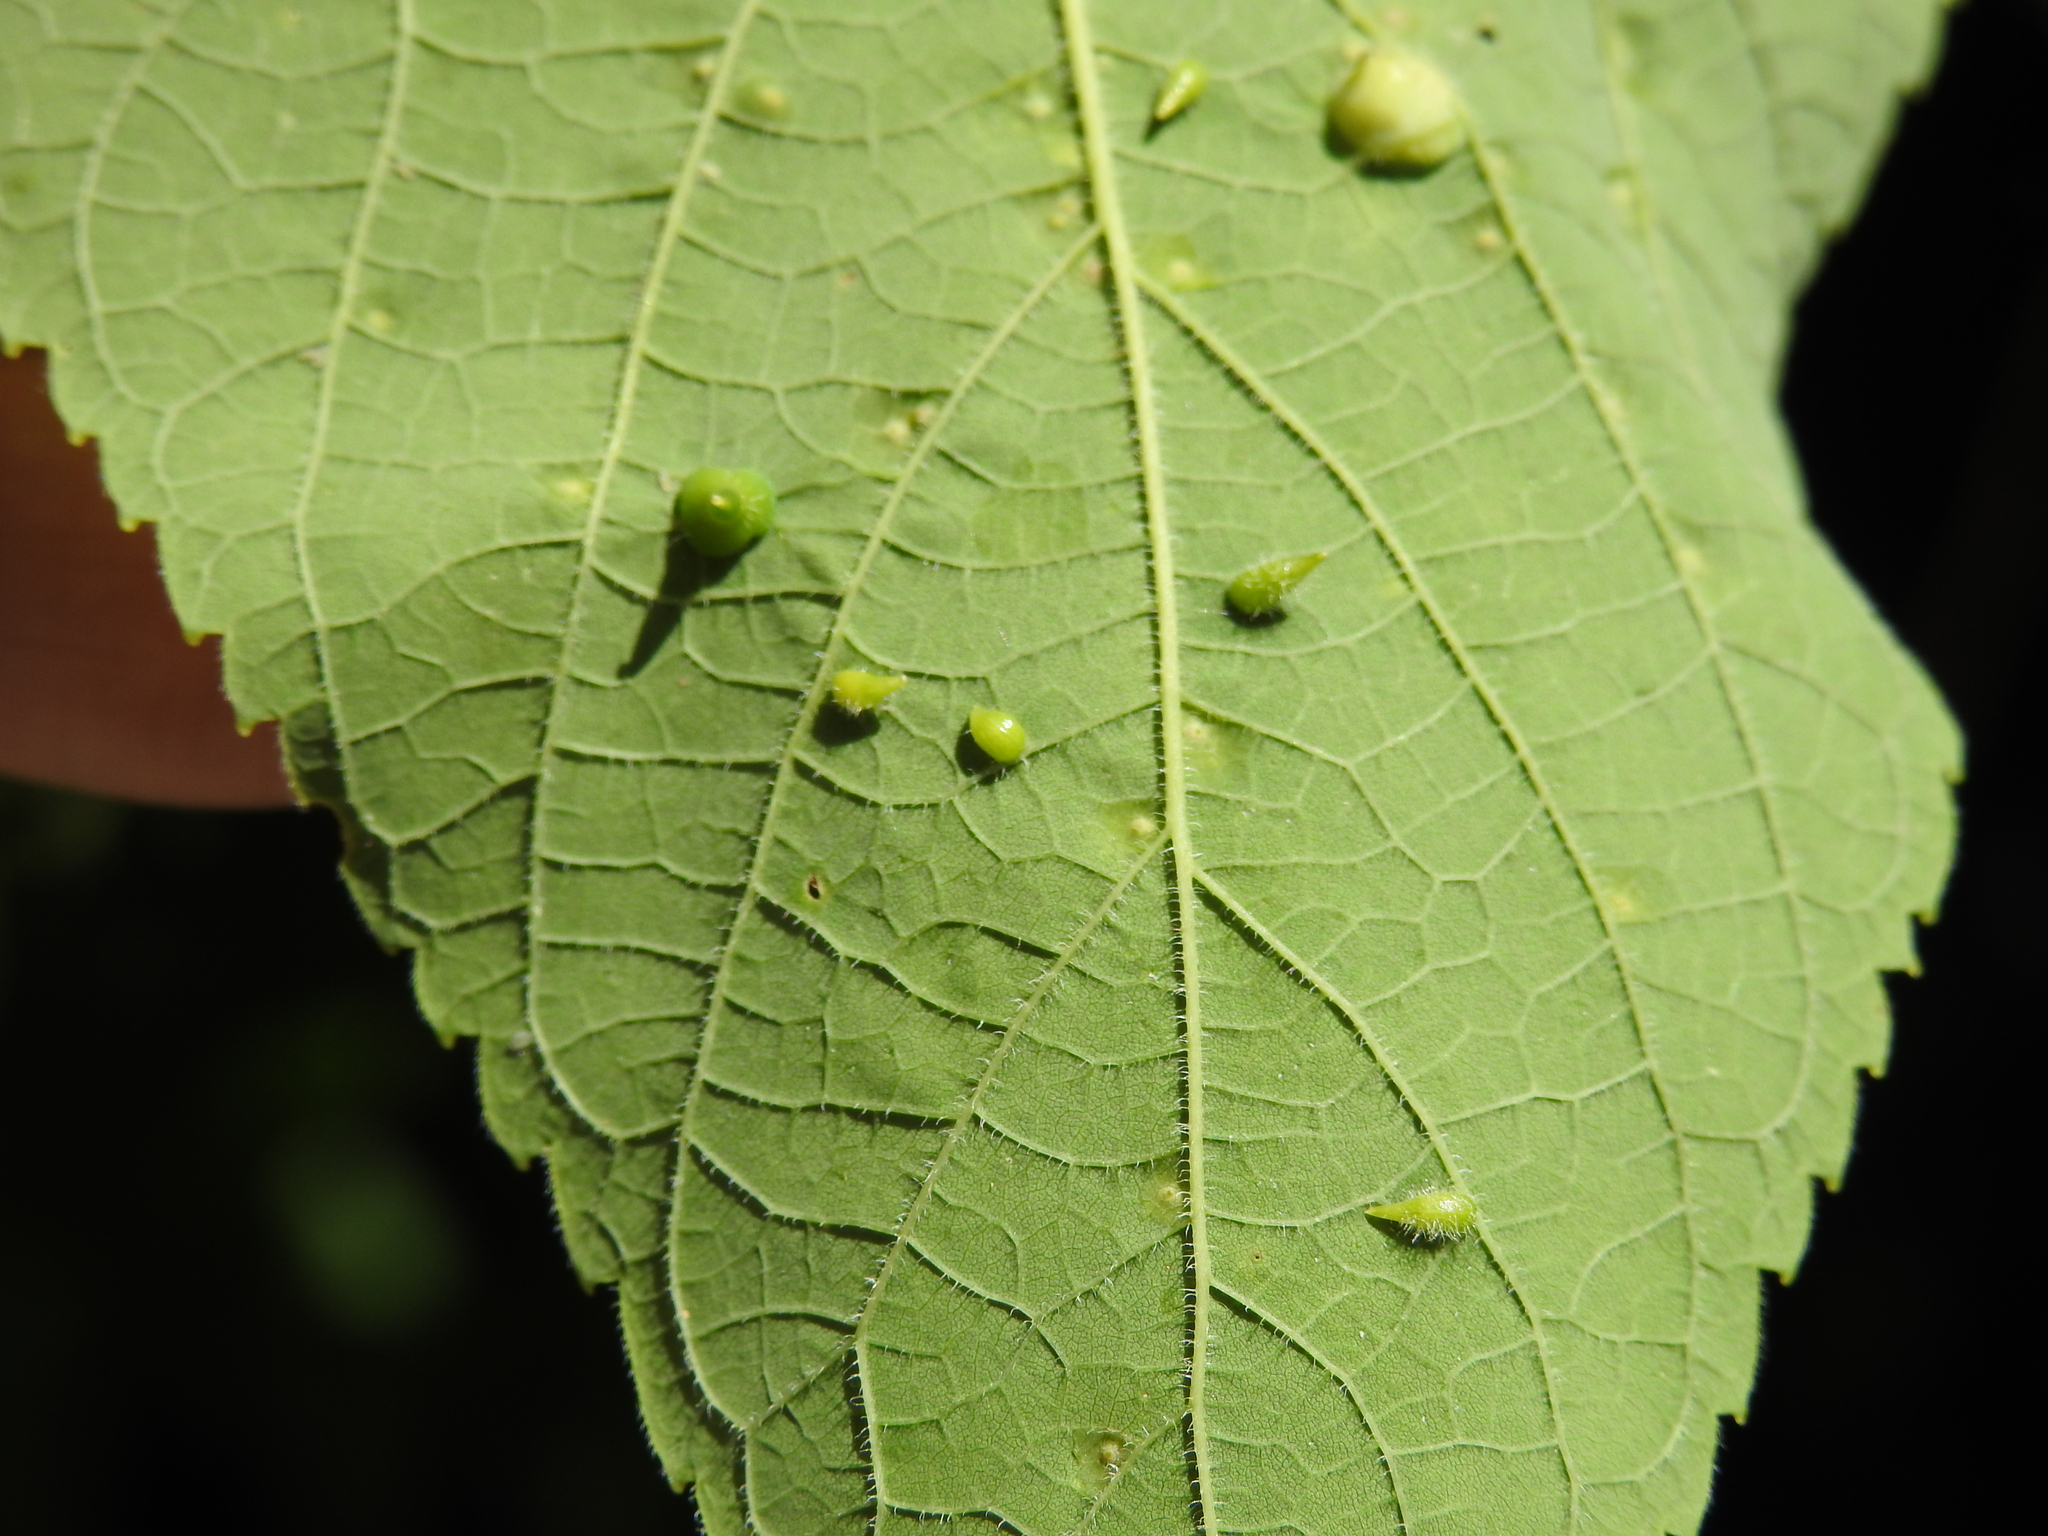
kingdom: Animalia
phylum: Arthropoda
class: Insecta
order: Diptera
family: Cecidomyiidae
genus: Celticecis
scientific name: Celticecis supina
